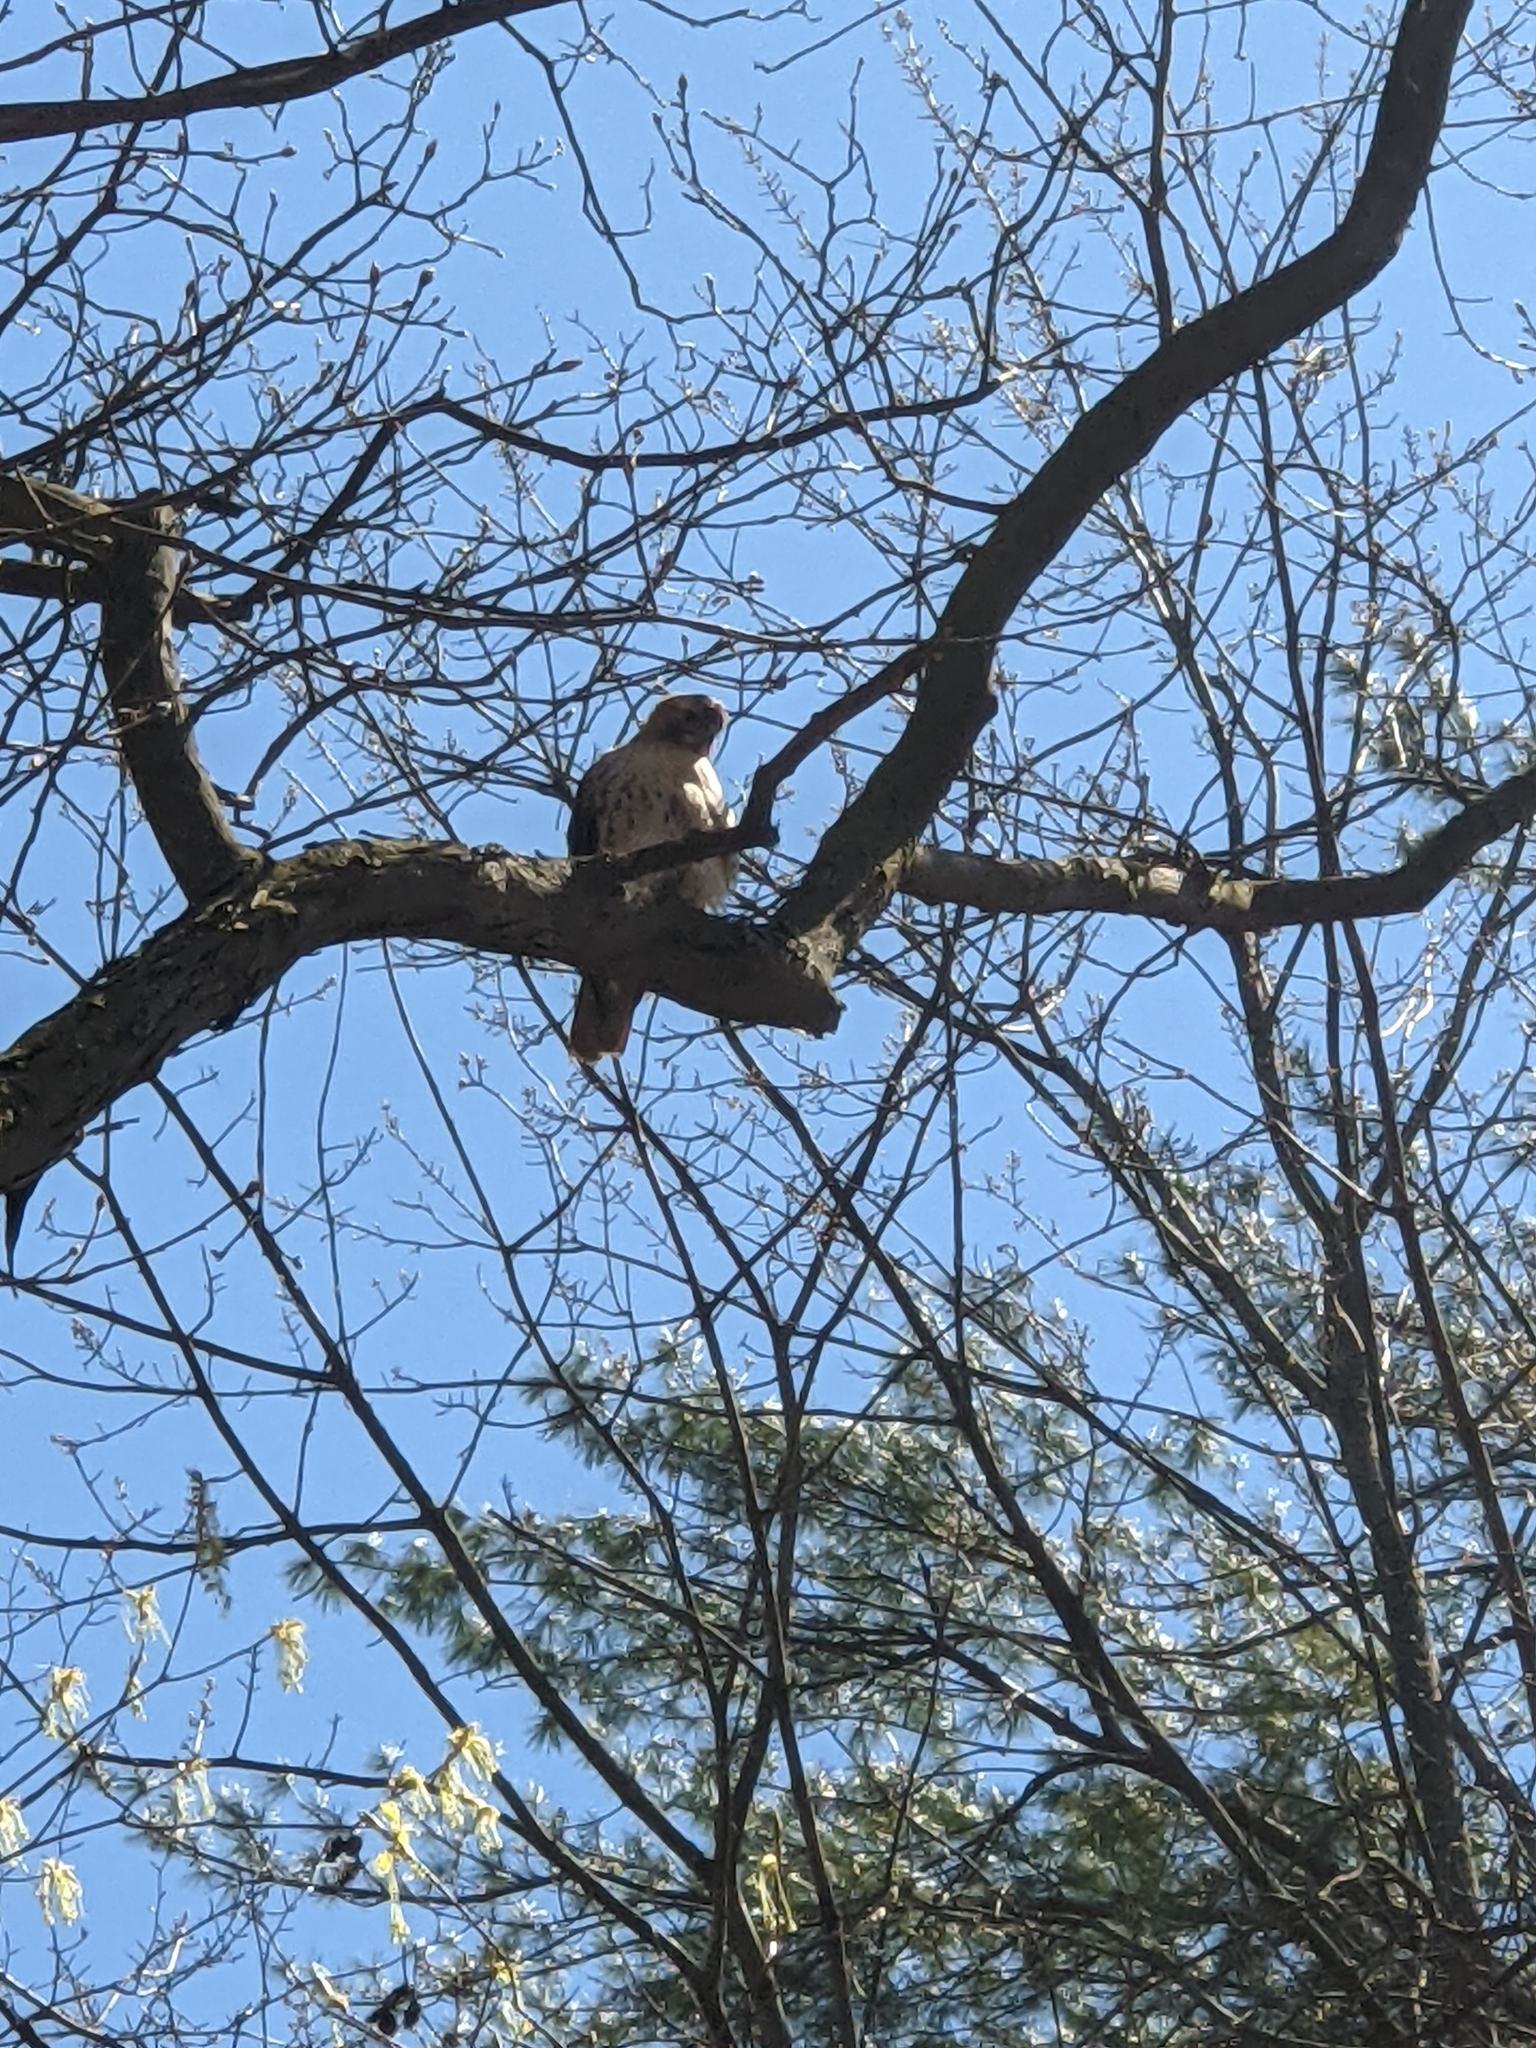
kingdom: Animalia
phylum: Chordata
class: Aves
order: Accipitriformes
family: Accipitridae
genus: Buteo
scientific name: Buteo jamaicensis
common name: Red-tailed hawk
